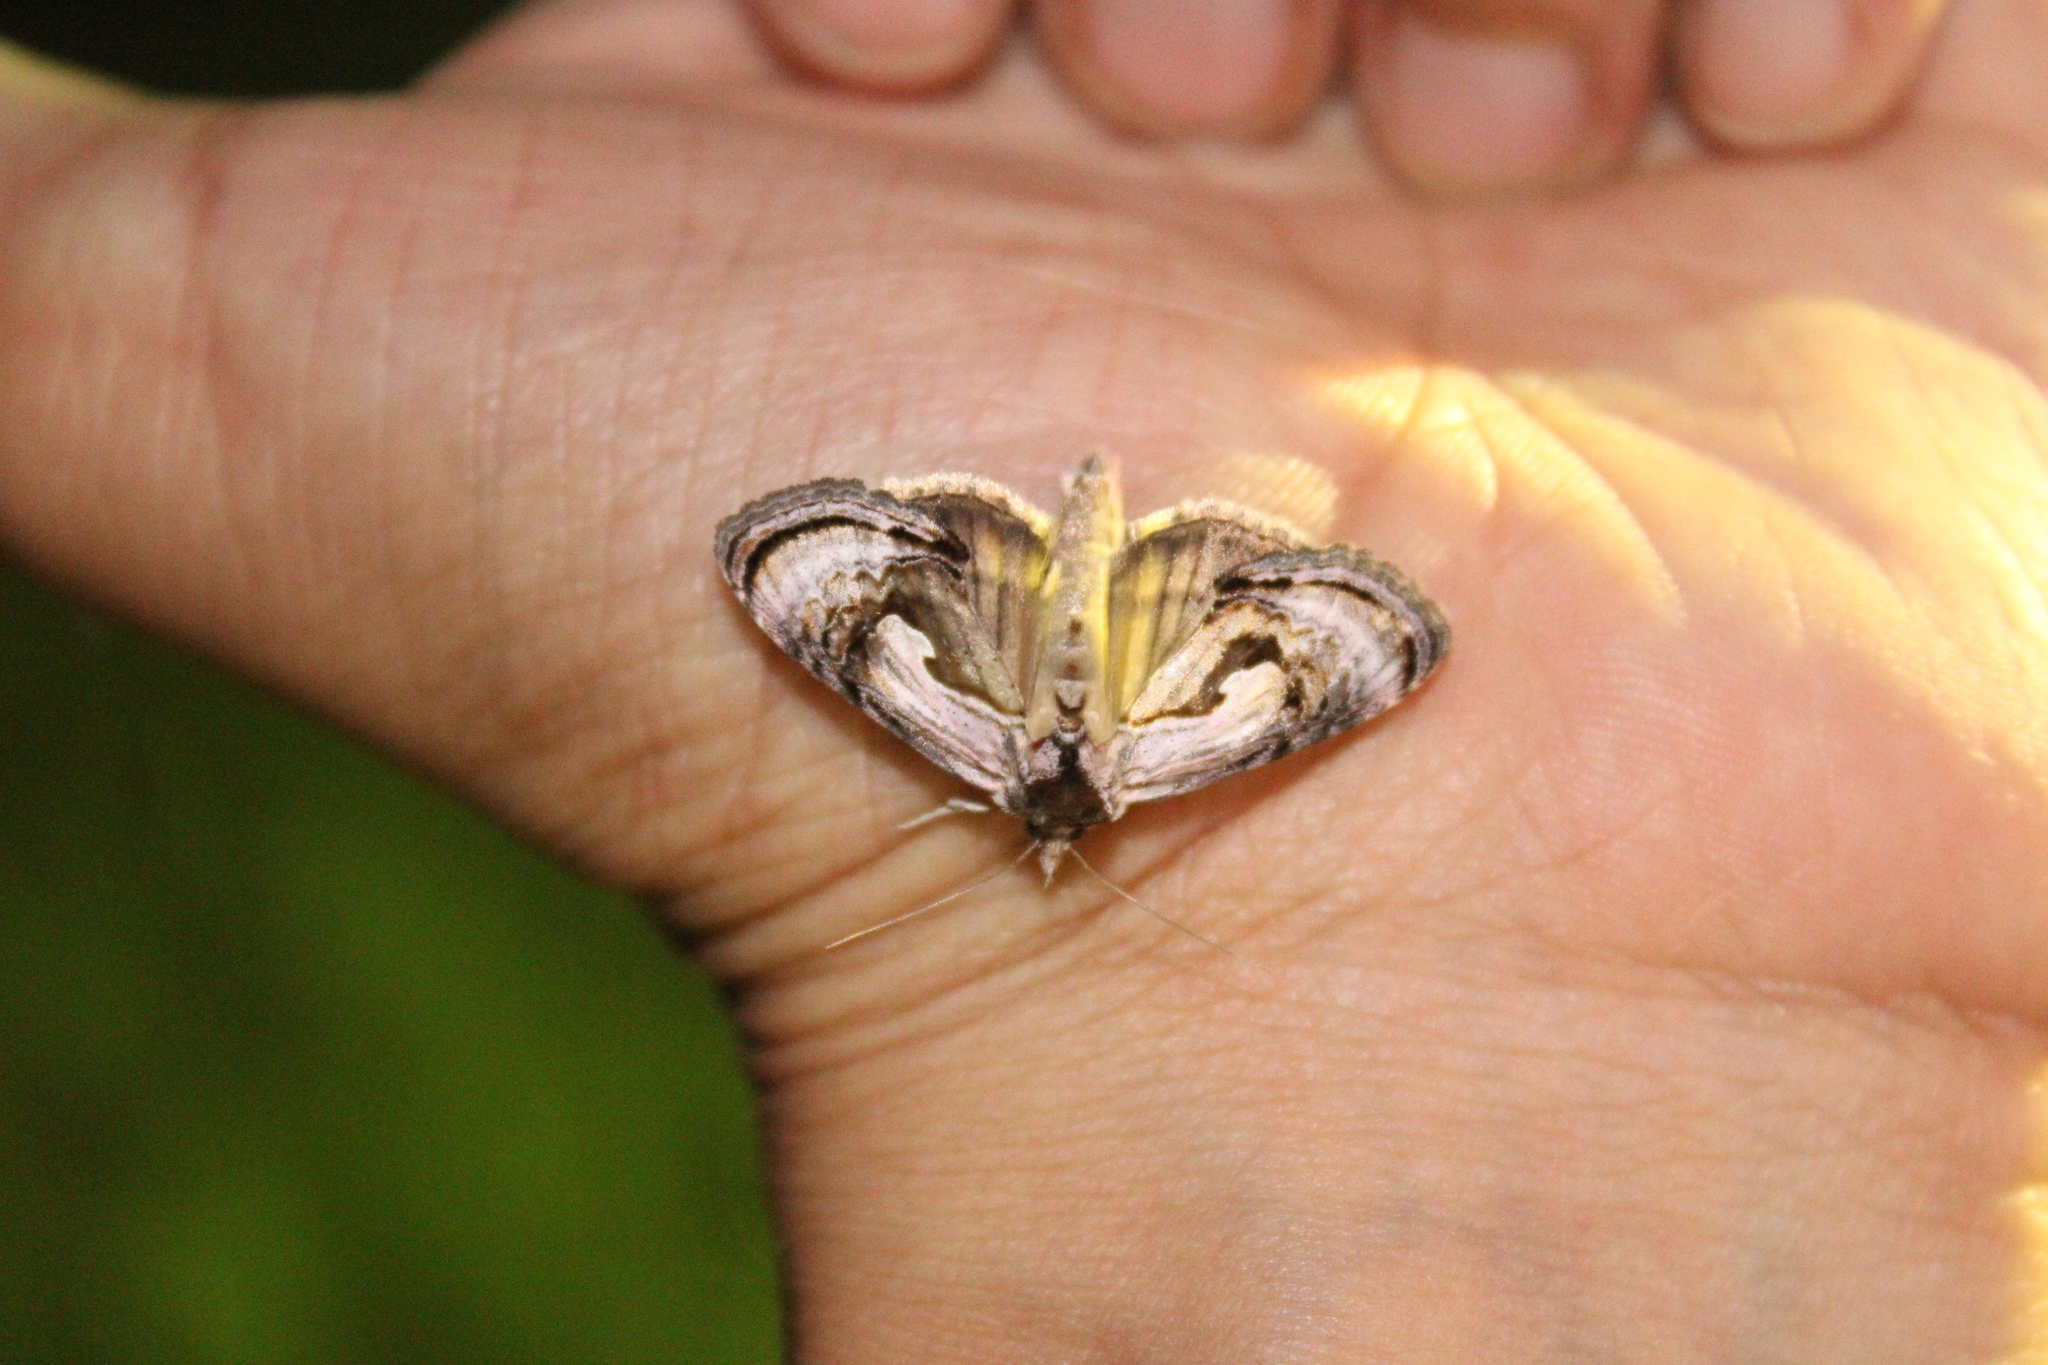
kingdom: Animalia
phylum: Arthropoda
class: Insecta
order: Lepidoptera
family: Noctuidae
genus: Chrysanympha
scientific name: Chrysanympha formosa
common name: Formosa looper moth
